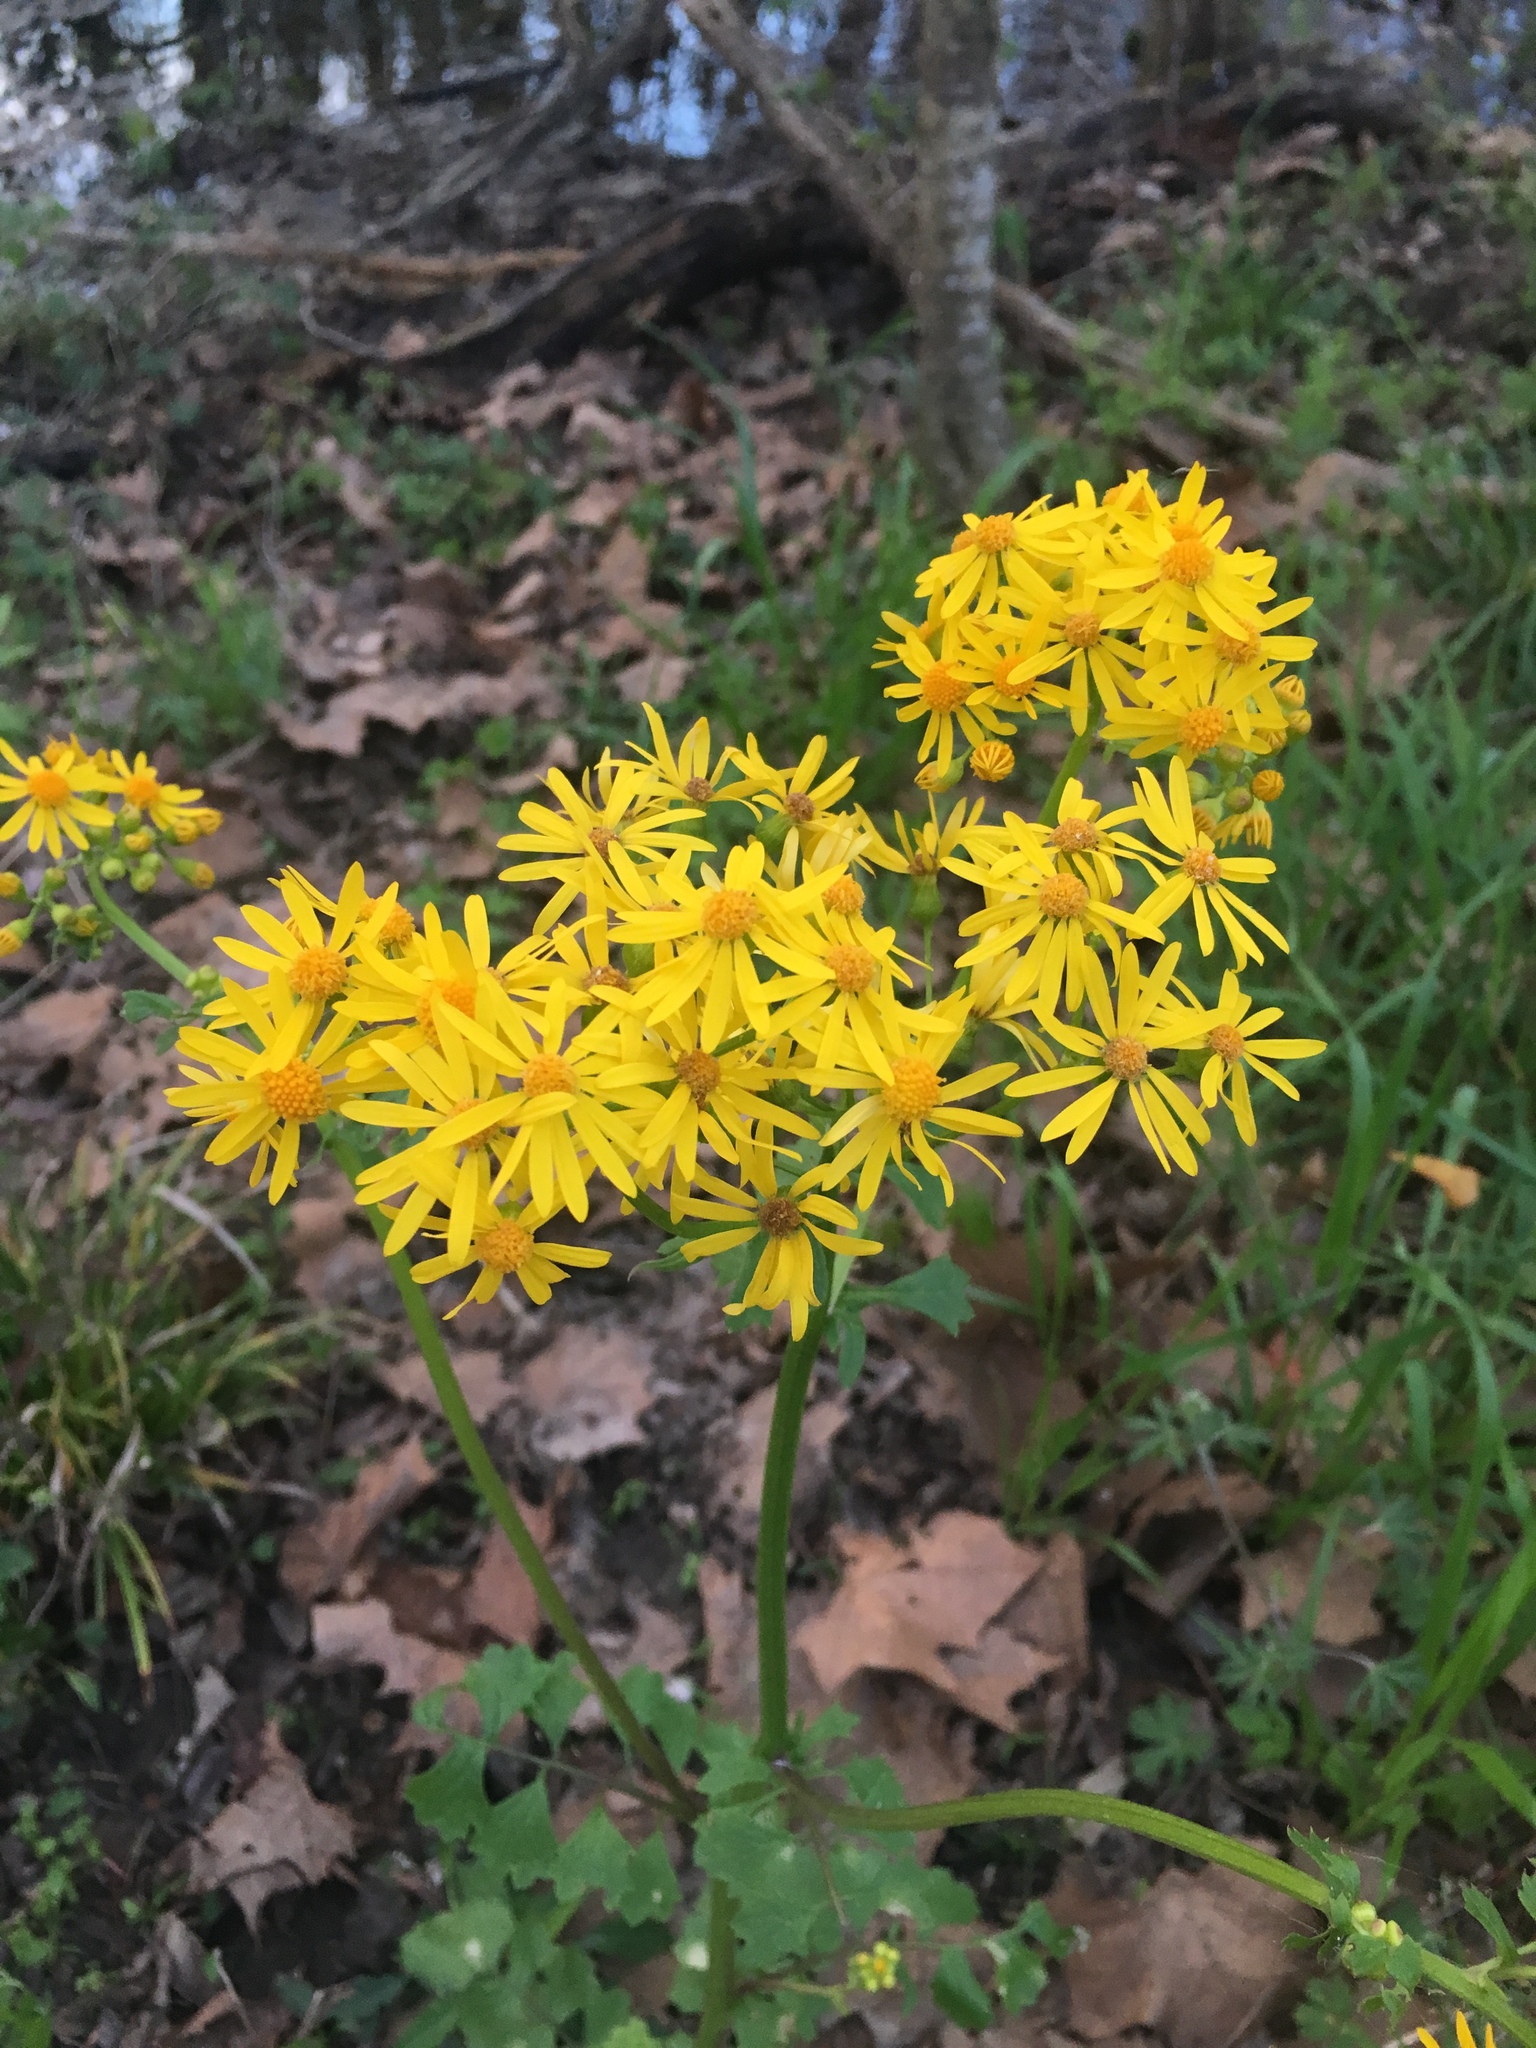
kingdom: Plantae
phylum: Tracheophyta
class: Magnoliopsida
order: Asterales
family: Asteraceae
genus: Packera
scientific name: Packera glabella
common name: Butterweed
